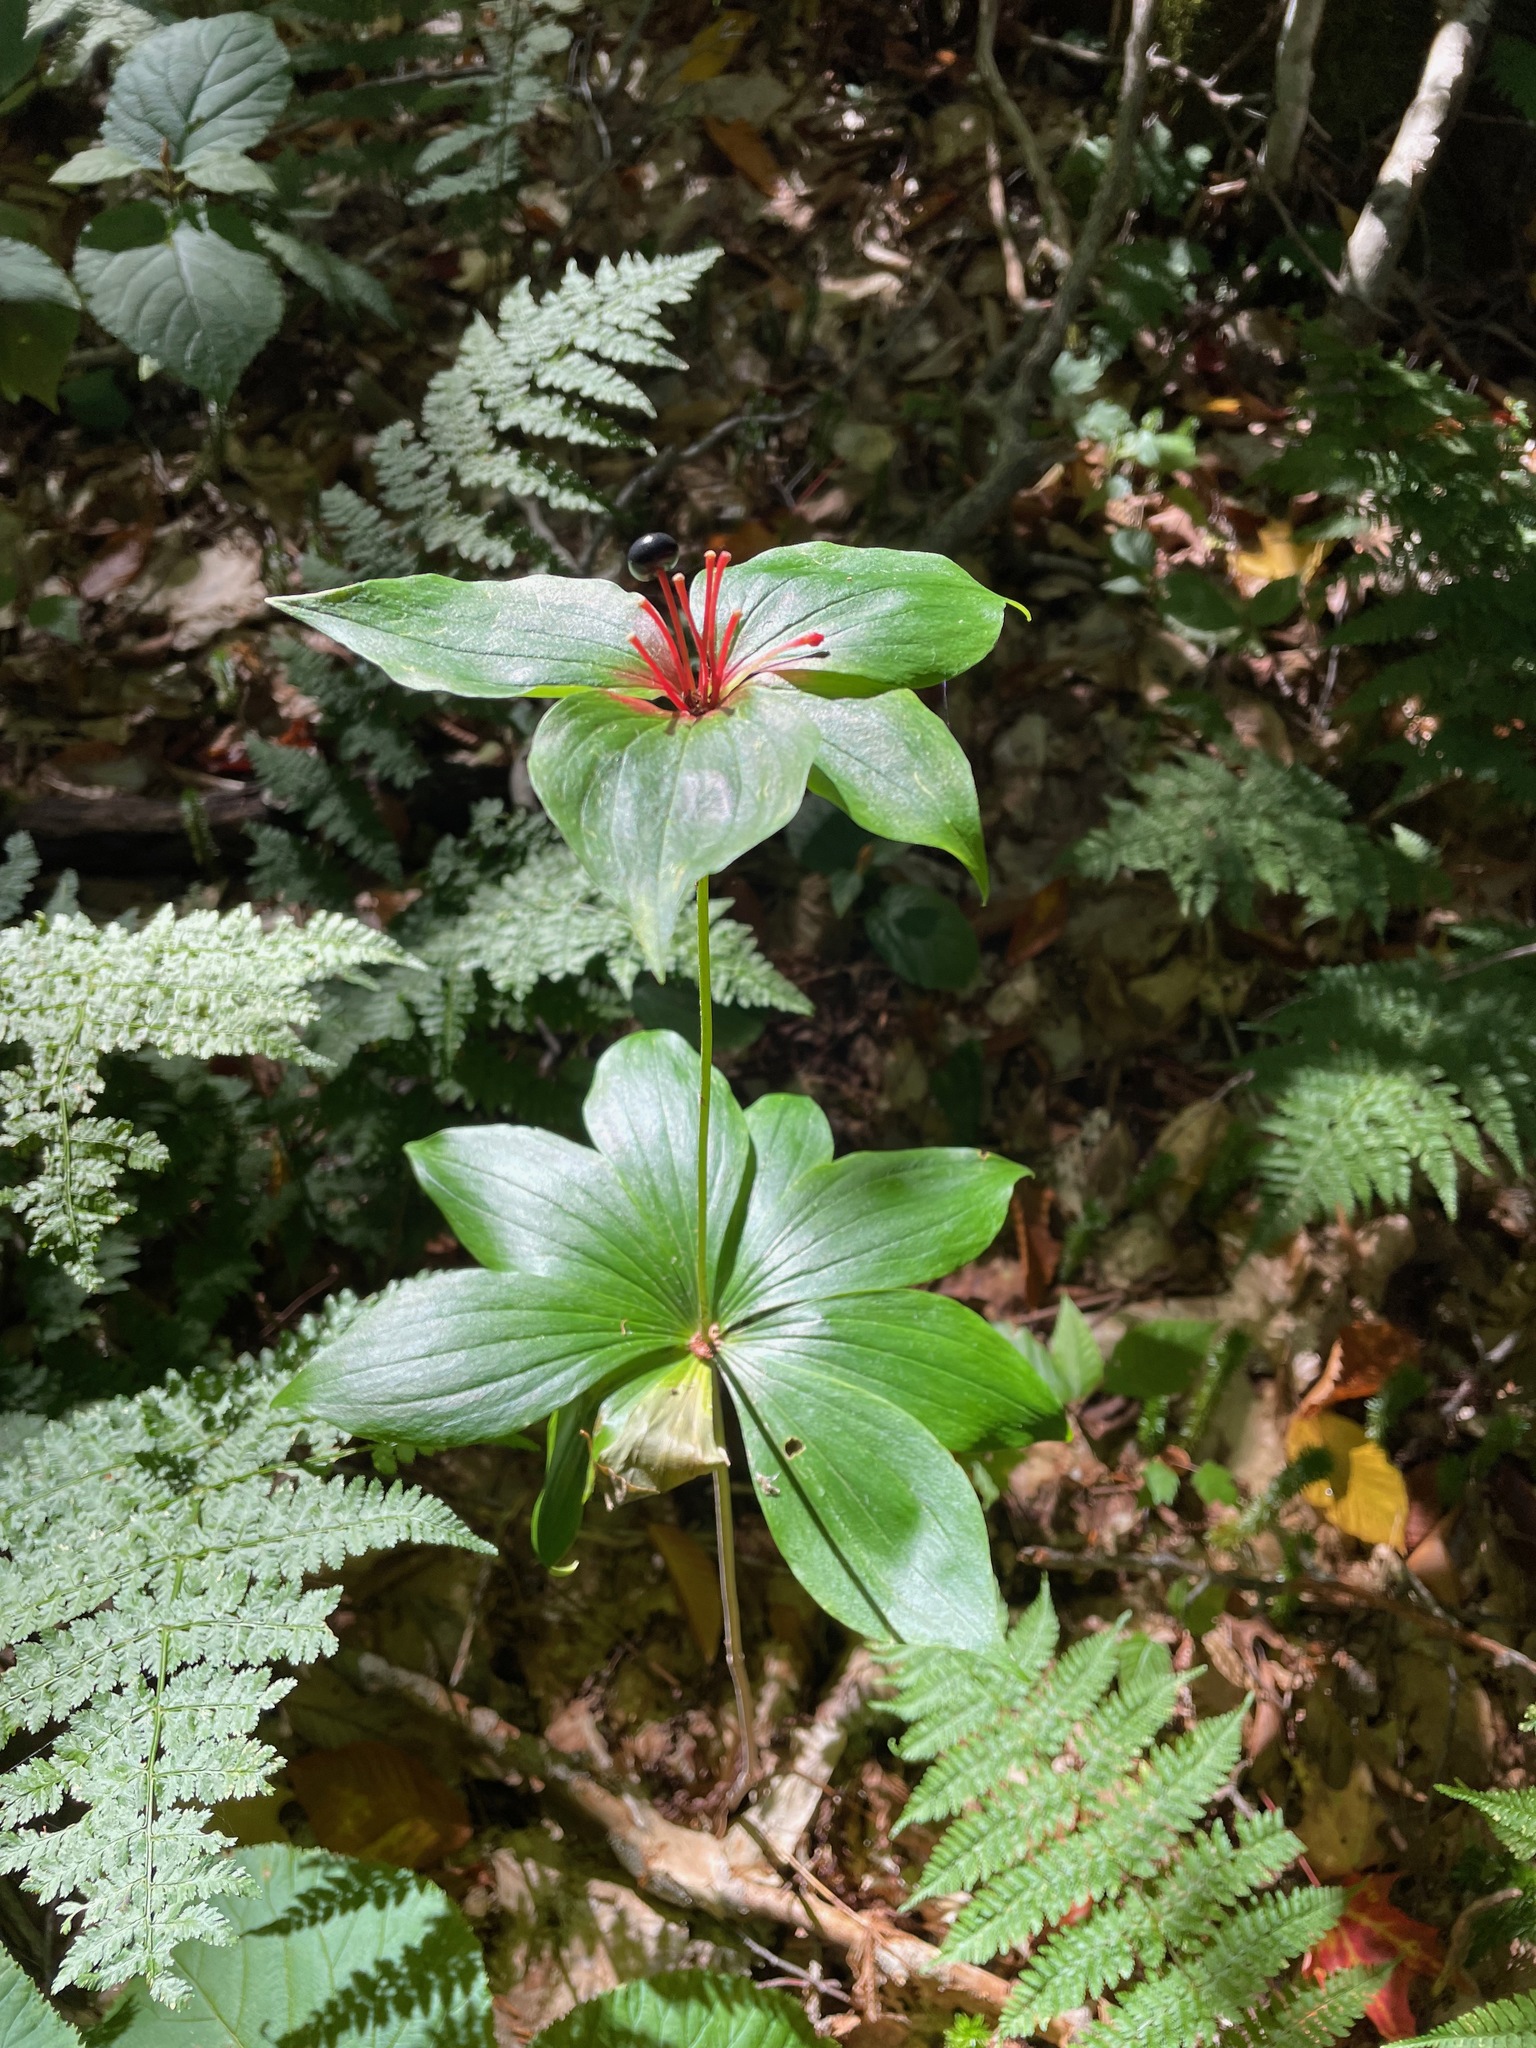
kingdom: Plantae
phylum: Tracheophyta
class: Liliopsida
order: Liliales
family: Liliaceae
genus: Medeola
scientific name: Medeola virginiana
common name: Indian cucumber-root
